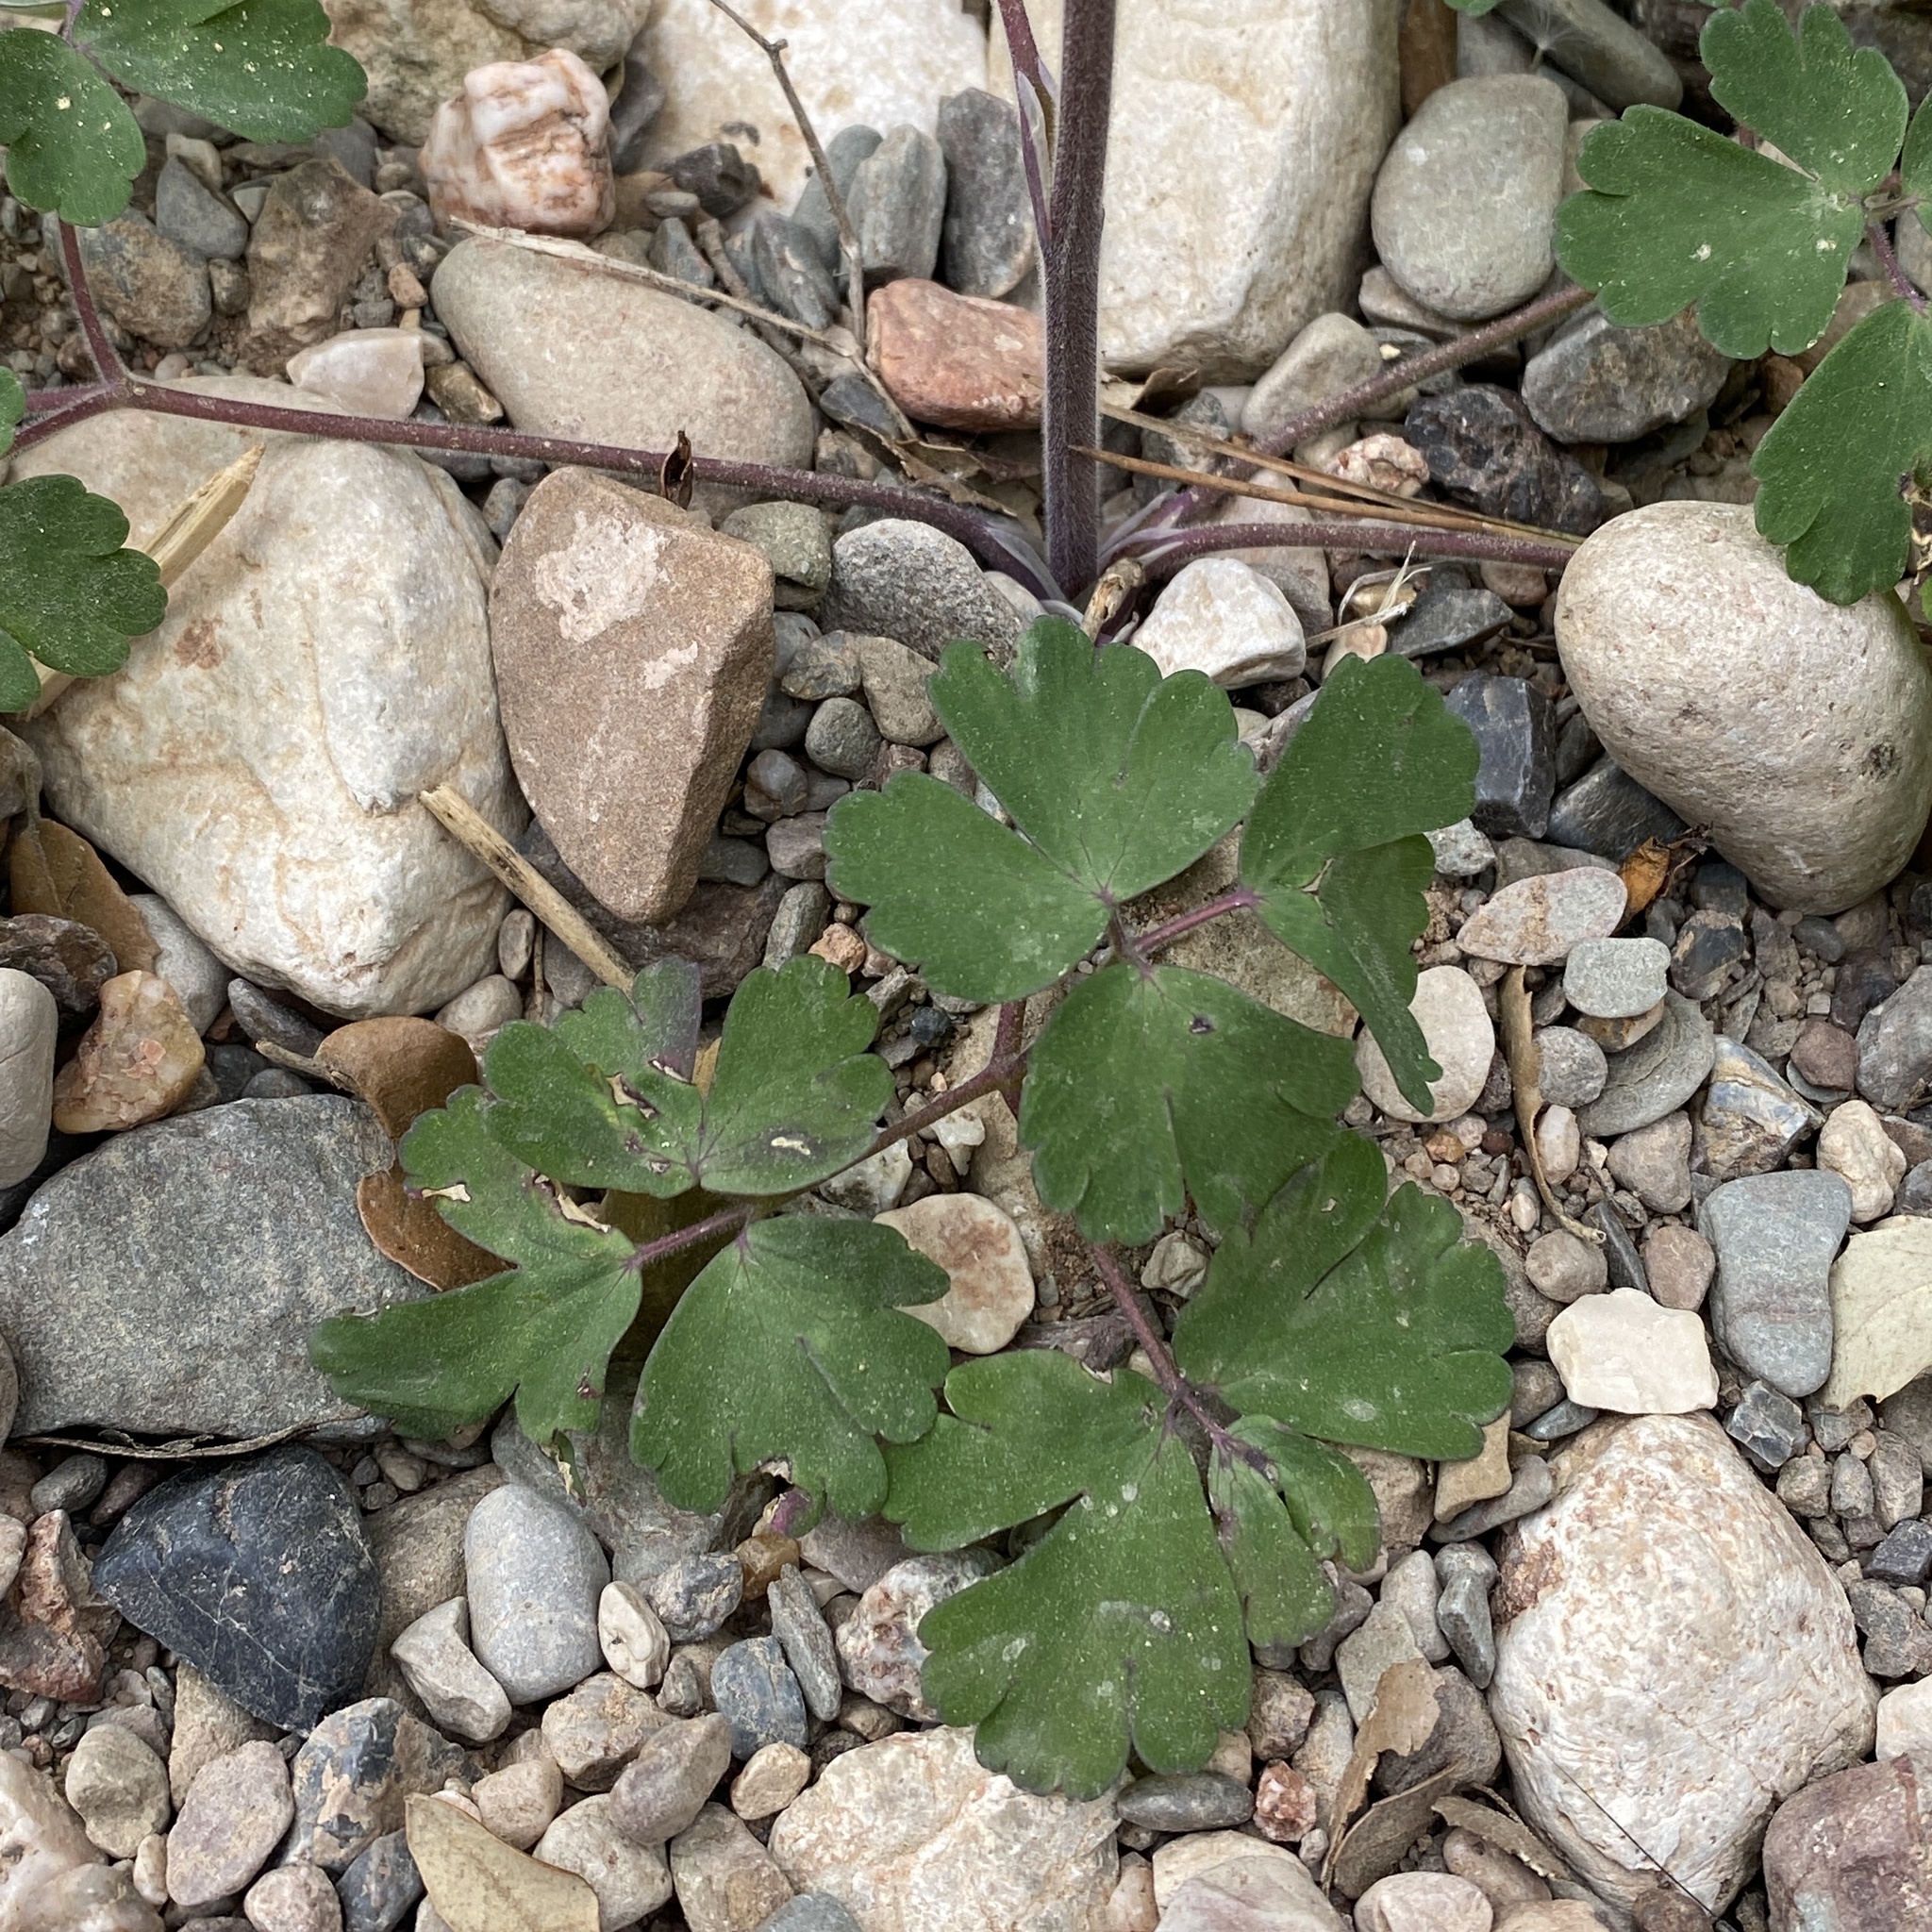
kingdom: Plantae
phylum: Tracheophyta
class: Magnoliopsida
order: Ranunculales
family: Ranunculaceae
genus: Aquilegia
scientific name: Aquilegia vulgaris
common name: Columbine
